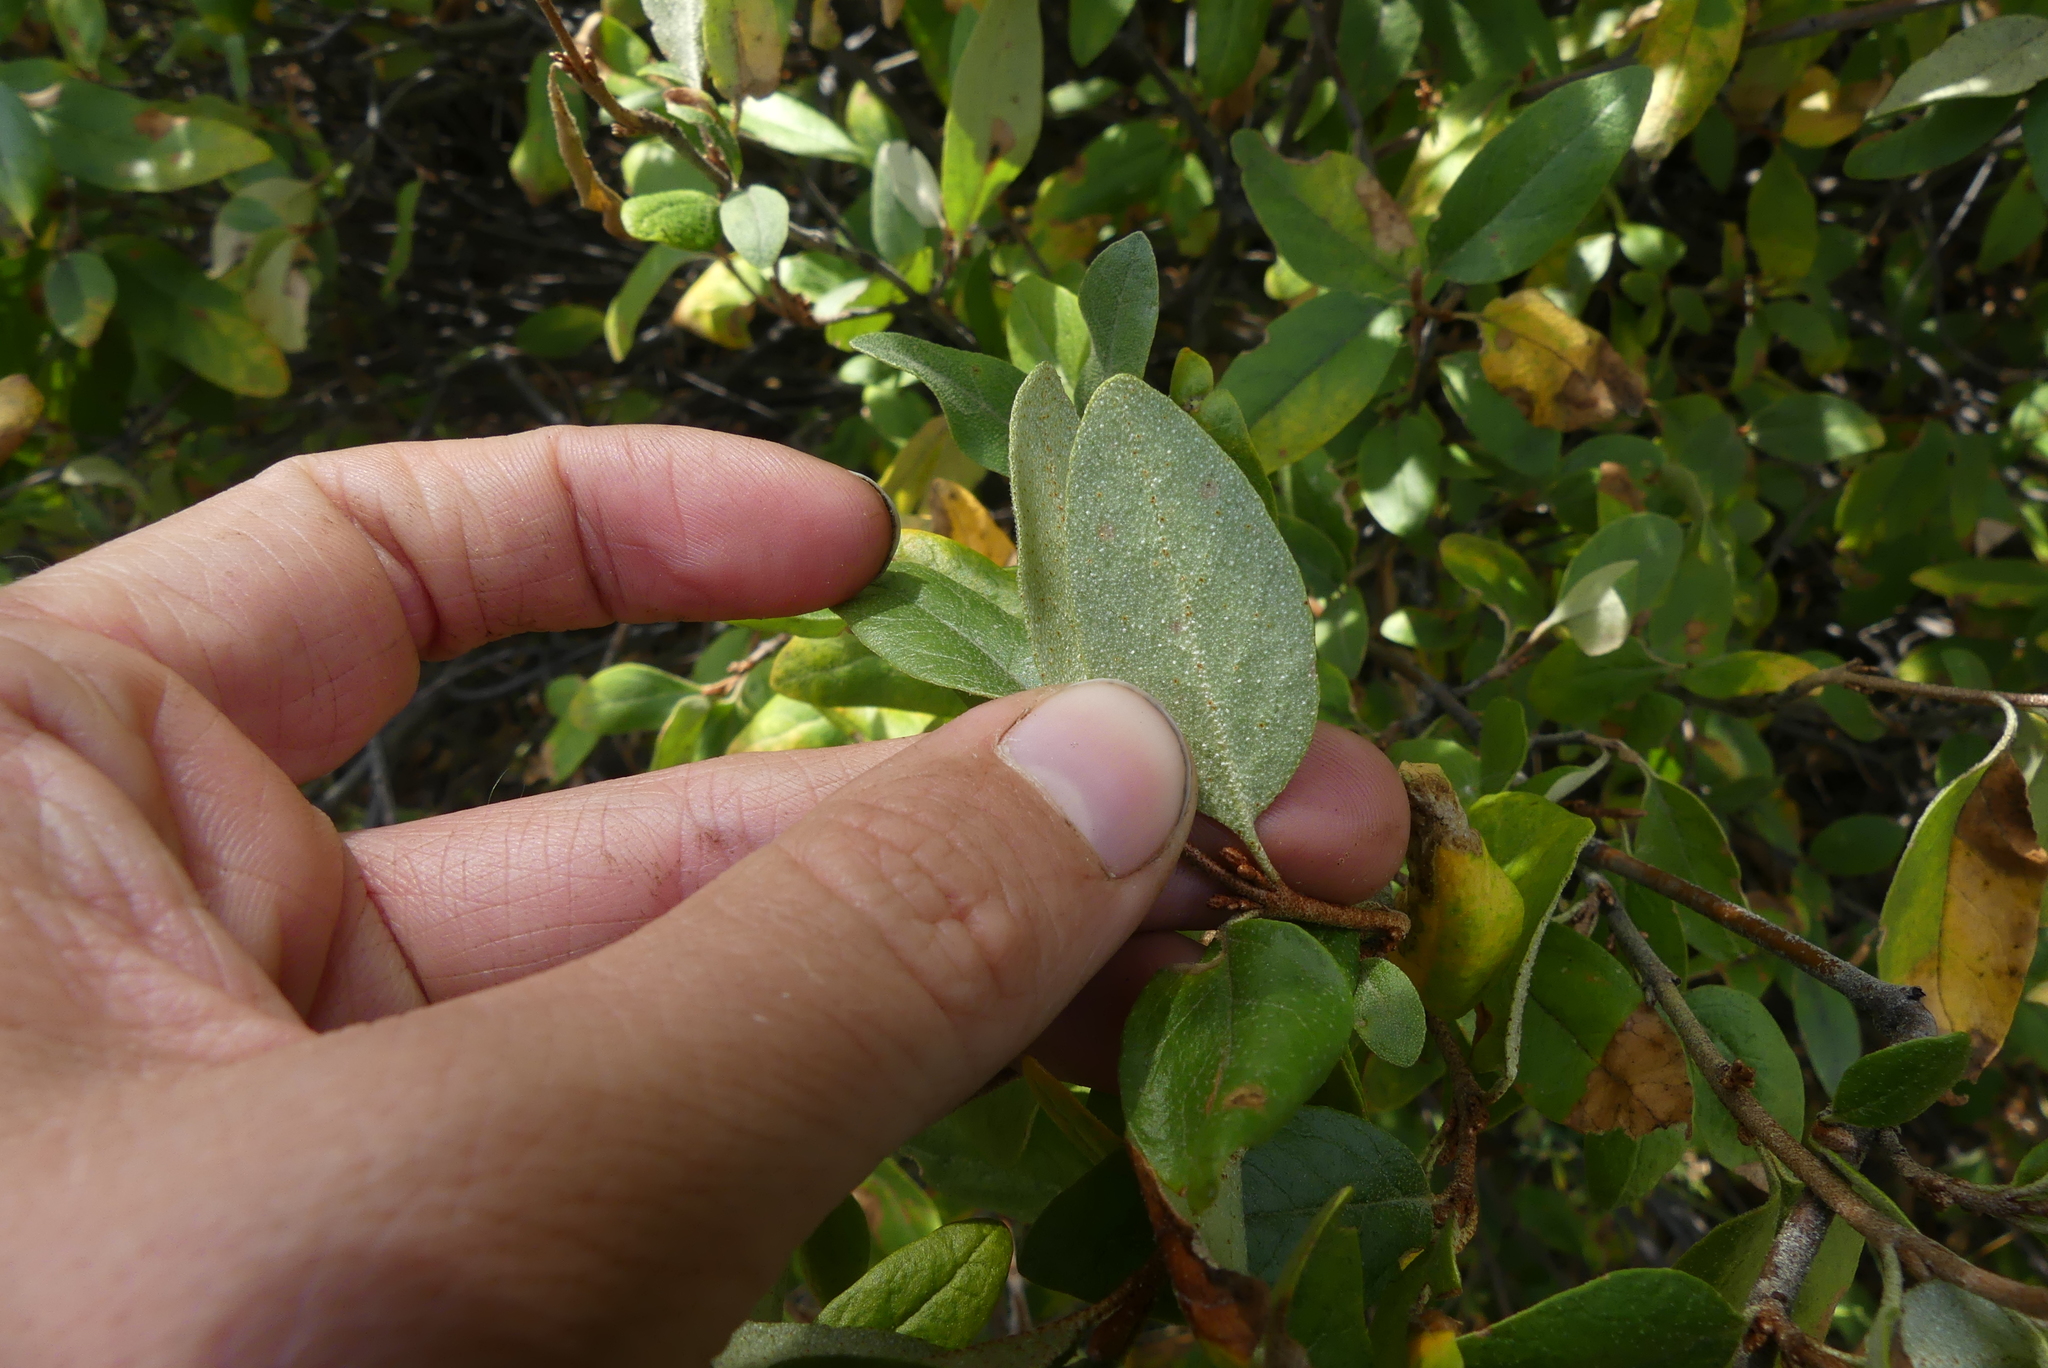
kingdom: Plantae
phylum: Tracheophyta
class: Magnoliopsida
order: Rosales
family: Elaeagnaceae
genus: Shepherdia
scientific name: Shepherdia canadensis
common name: Soapberry
